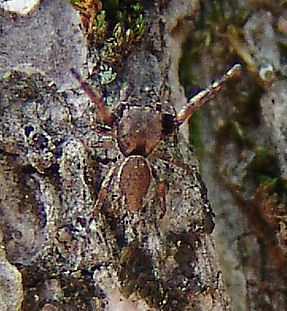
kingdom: Animalia
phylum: Arthropoda
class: Arachnida
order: Araneae
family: Salticidae
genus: Zygoballus
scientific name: Zygoballus nervosus
